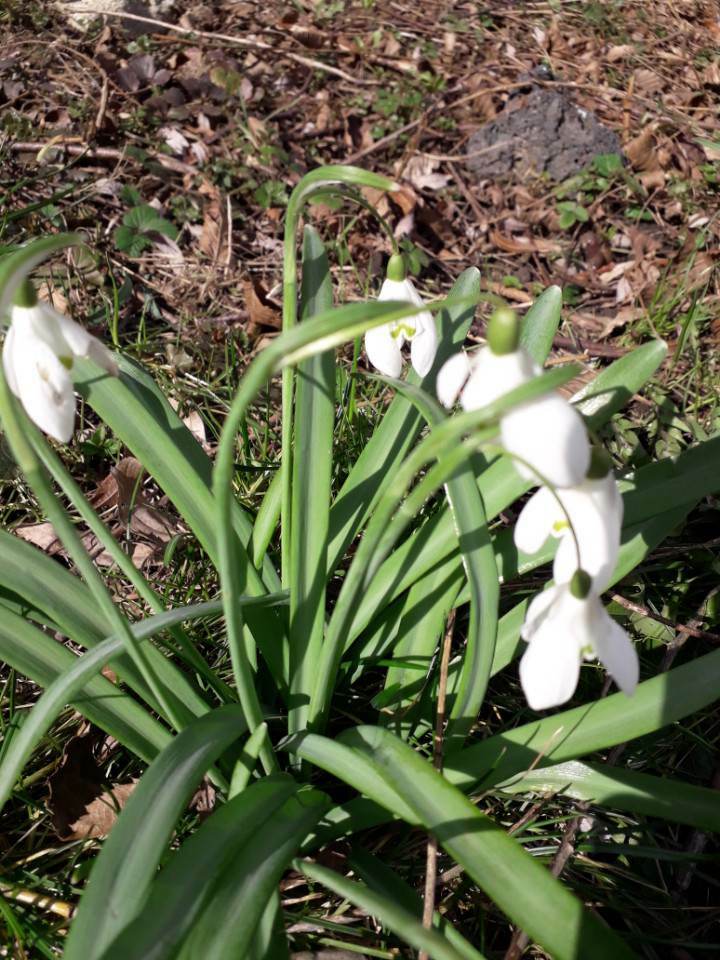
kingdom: Plantae
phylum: Tracheophyta
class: Liliopsida
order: Asparagales
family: Amaryllidaceae
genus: Galanthus
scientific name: Galanthus nivalis
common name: Snowdrop
